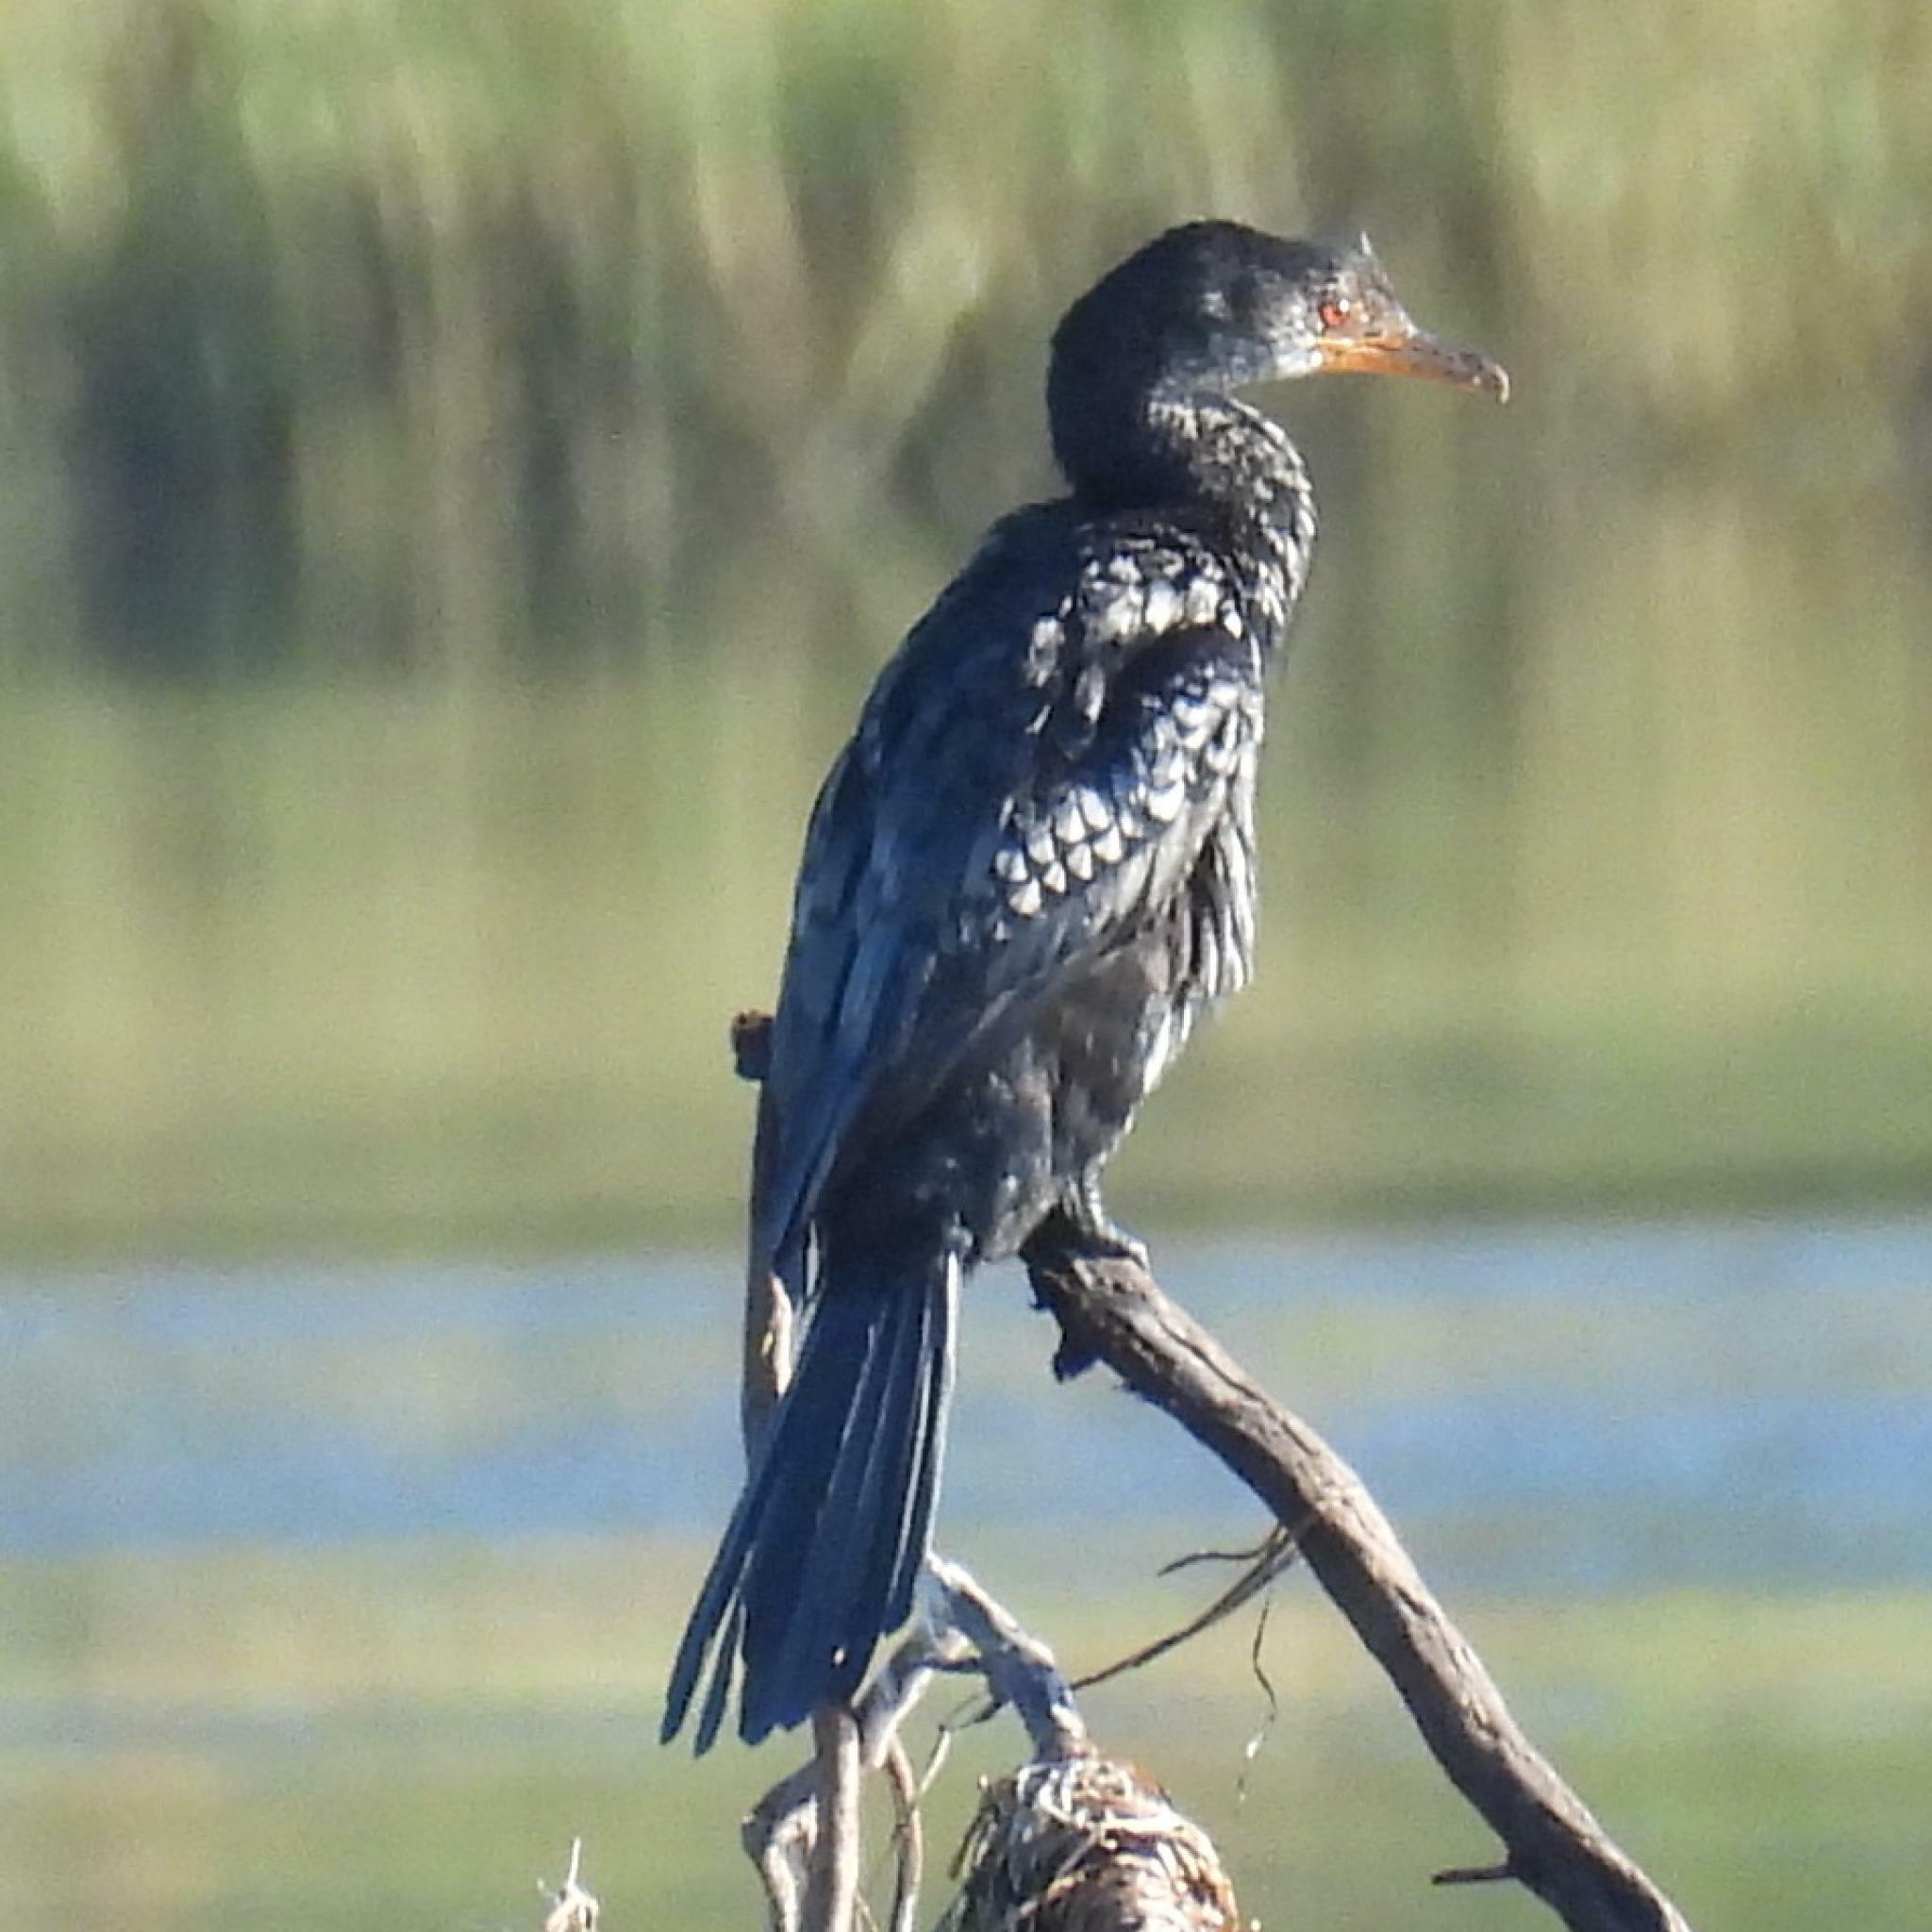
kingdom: Animalia
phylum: Chordata
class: Aves
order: Suliformes
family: Phalacrocoracidae
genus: Microcarbo
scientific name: Microcarbo africanus
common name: Long-tailed cormorant
